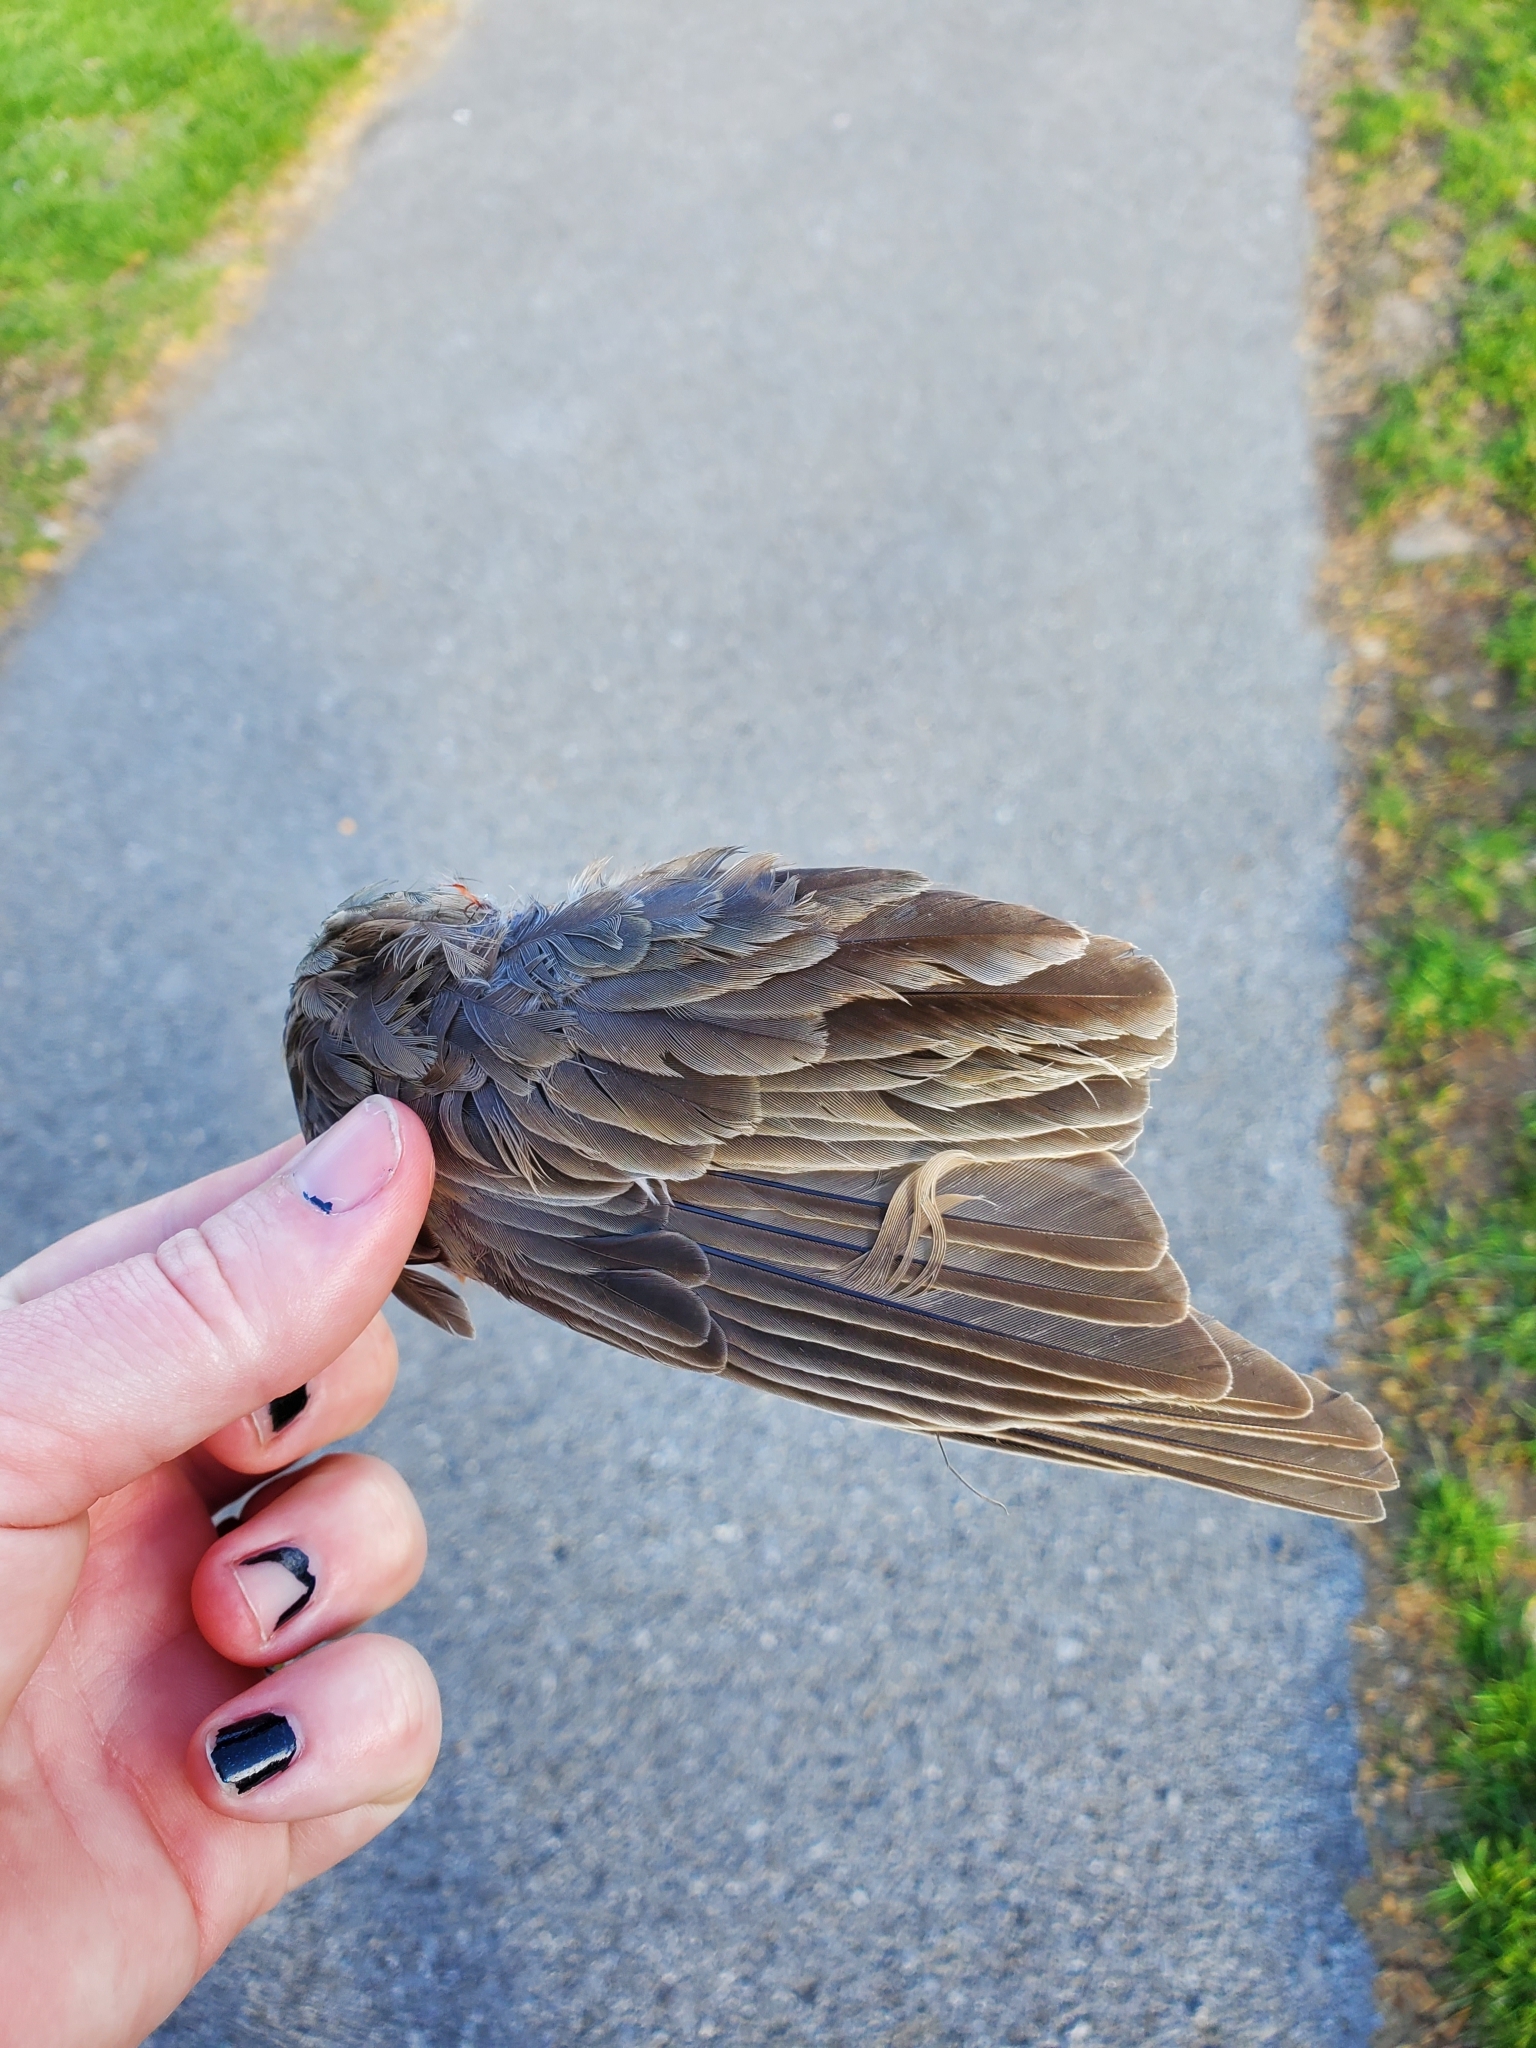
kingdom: Animalia
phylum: Chordata
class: Aves
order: Passeriformes
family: Turdidae
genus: Turdus
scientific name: Turdus migratorius
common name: American robin
